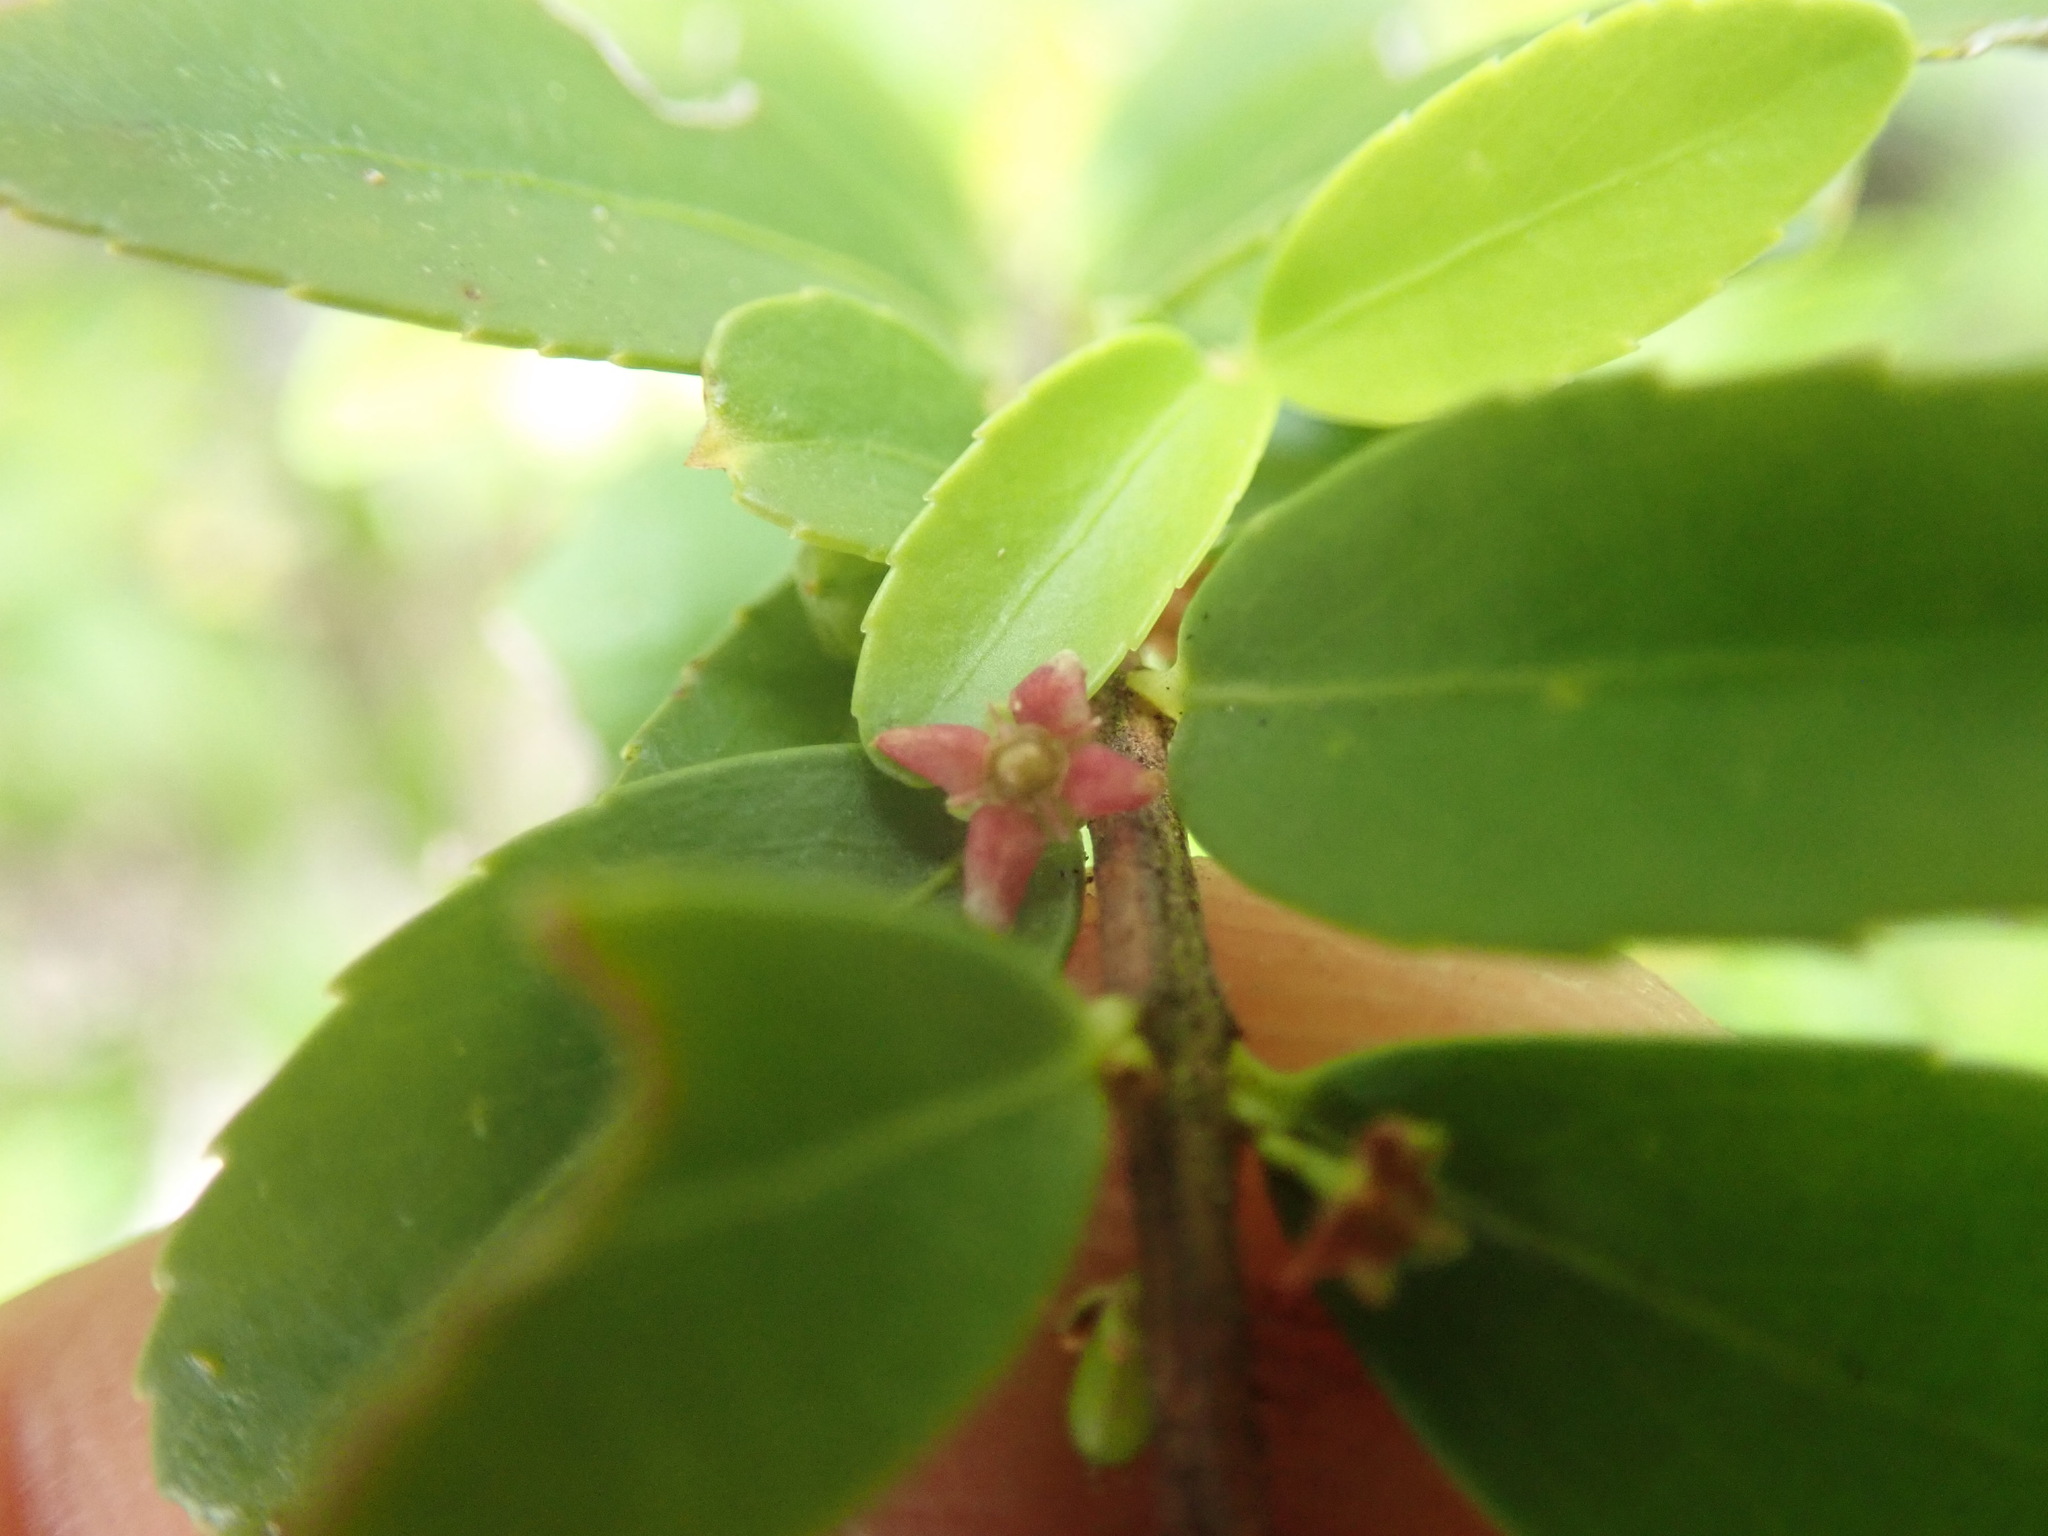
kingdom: Plantae
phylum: Tracheophyta
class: Magnoliopsida
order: Celastrales
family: Celastraceae
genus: Paxistima
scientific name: Paxistima myrsinites
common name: Mountain-lover
